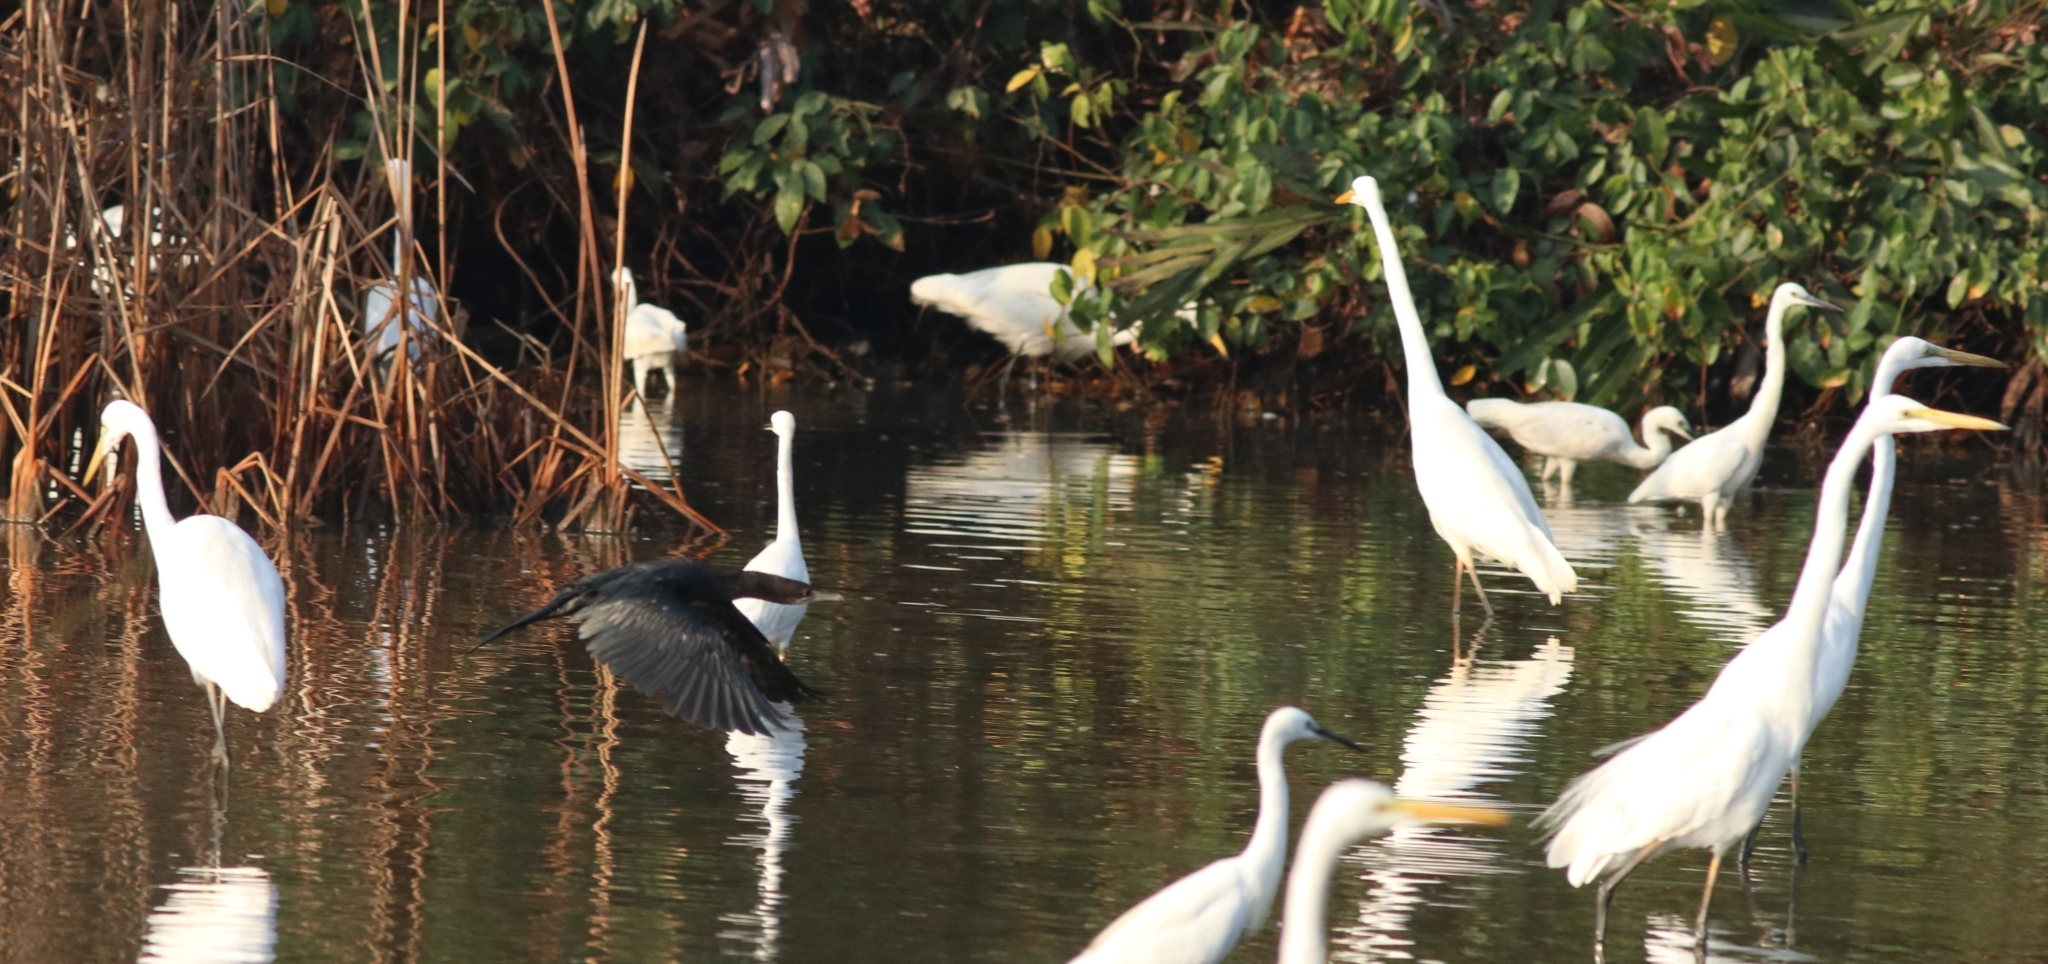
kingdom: Animalia
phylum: Chordata
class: Aves
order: Suliformes
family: Phalacrocoracidae
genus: Microcarbo
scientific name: Microcarbo niger
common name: Little cormorant
